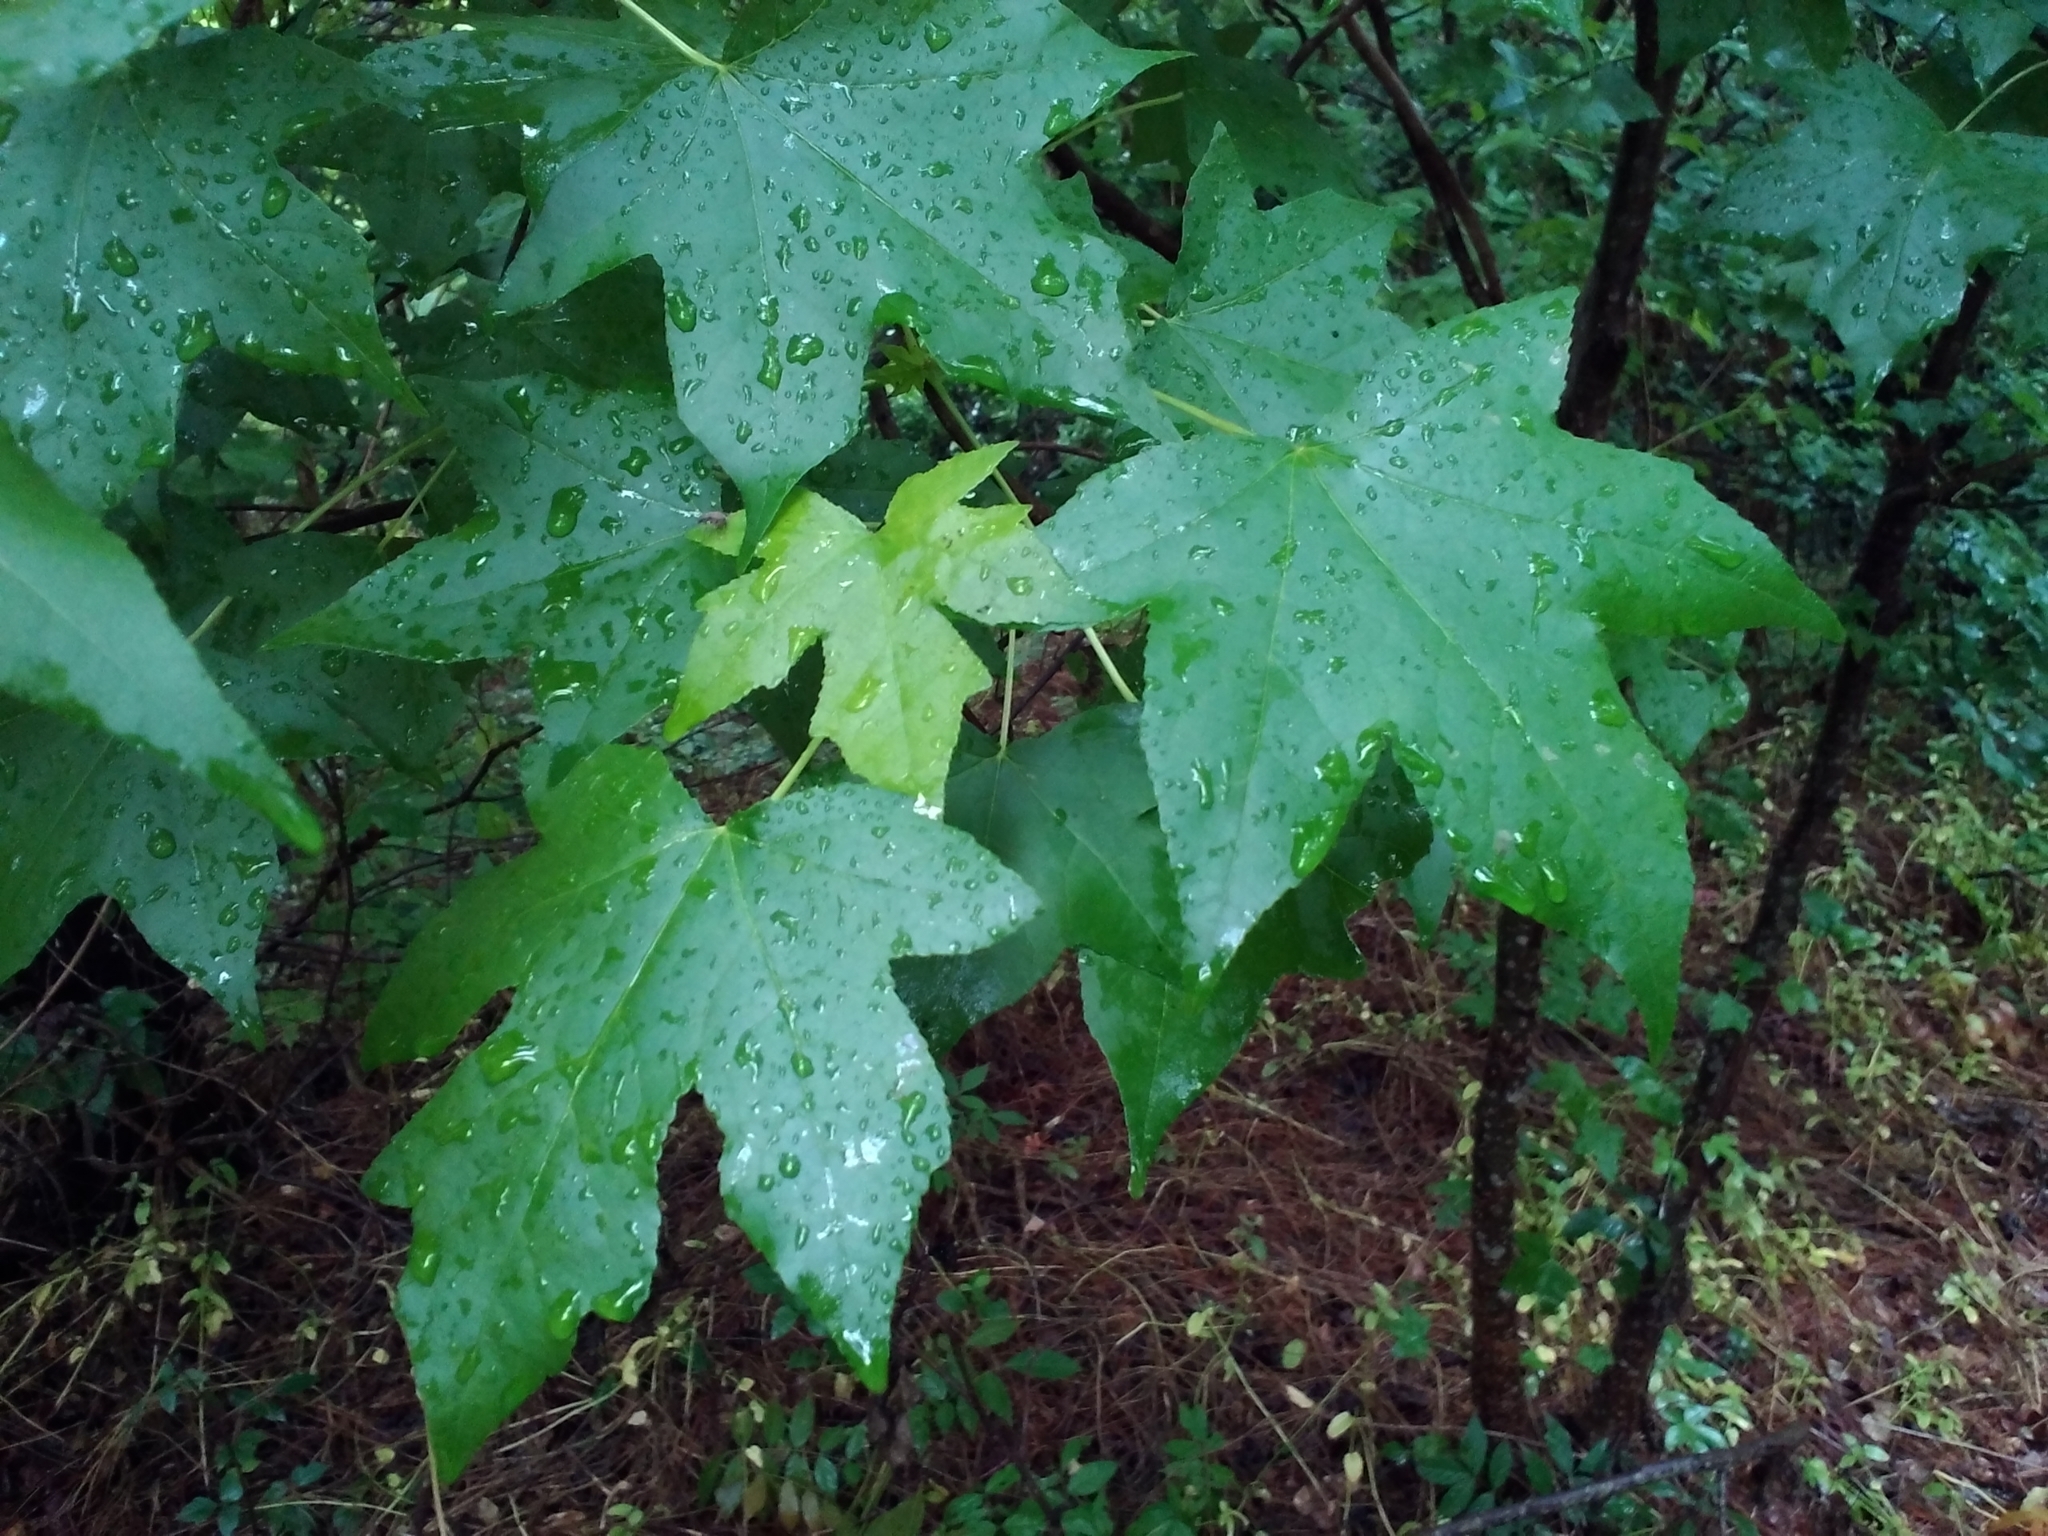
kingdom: Plantae
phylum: Tracheophyta
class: Magnoliopsida
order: Saxifragales
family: Altingiaceae
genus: Liquidambar
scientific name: Liquidambar styraciflua
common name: Sweet gum
